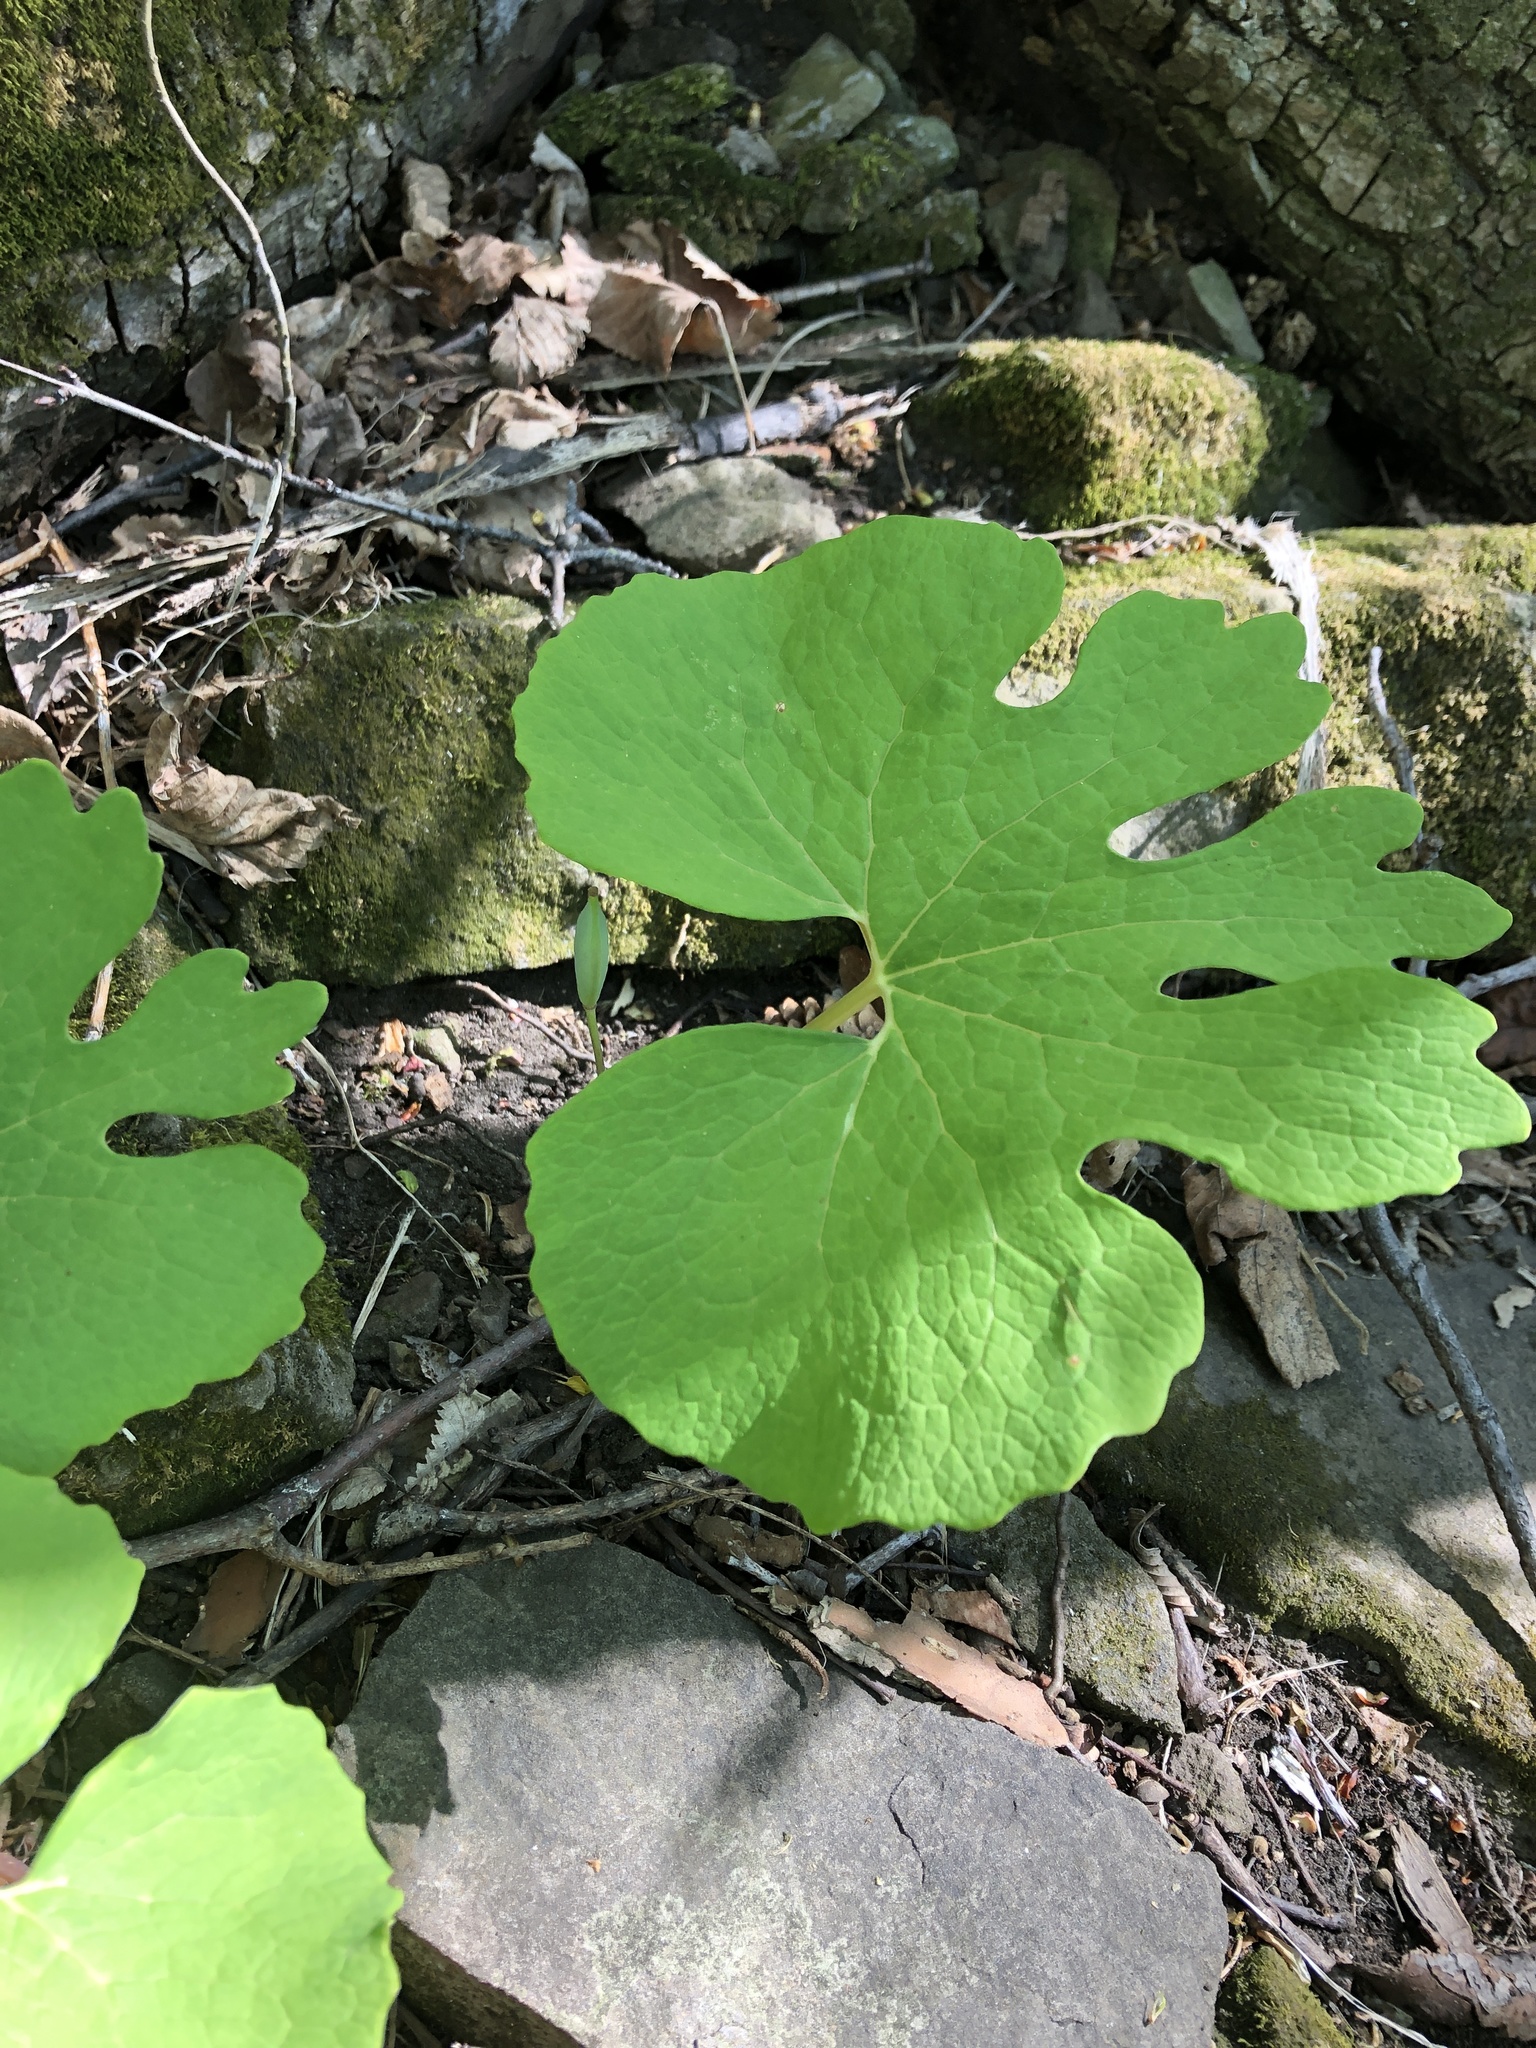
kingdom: Plantae
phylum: Tracheophyta
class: Magnoliopsida
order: Ranunculales
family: Papaveraceae
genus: Sanguinaria
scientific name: Sanguinaria canadensis
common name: Bloodroot
